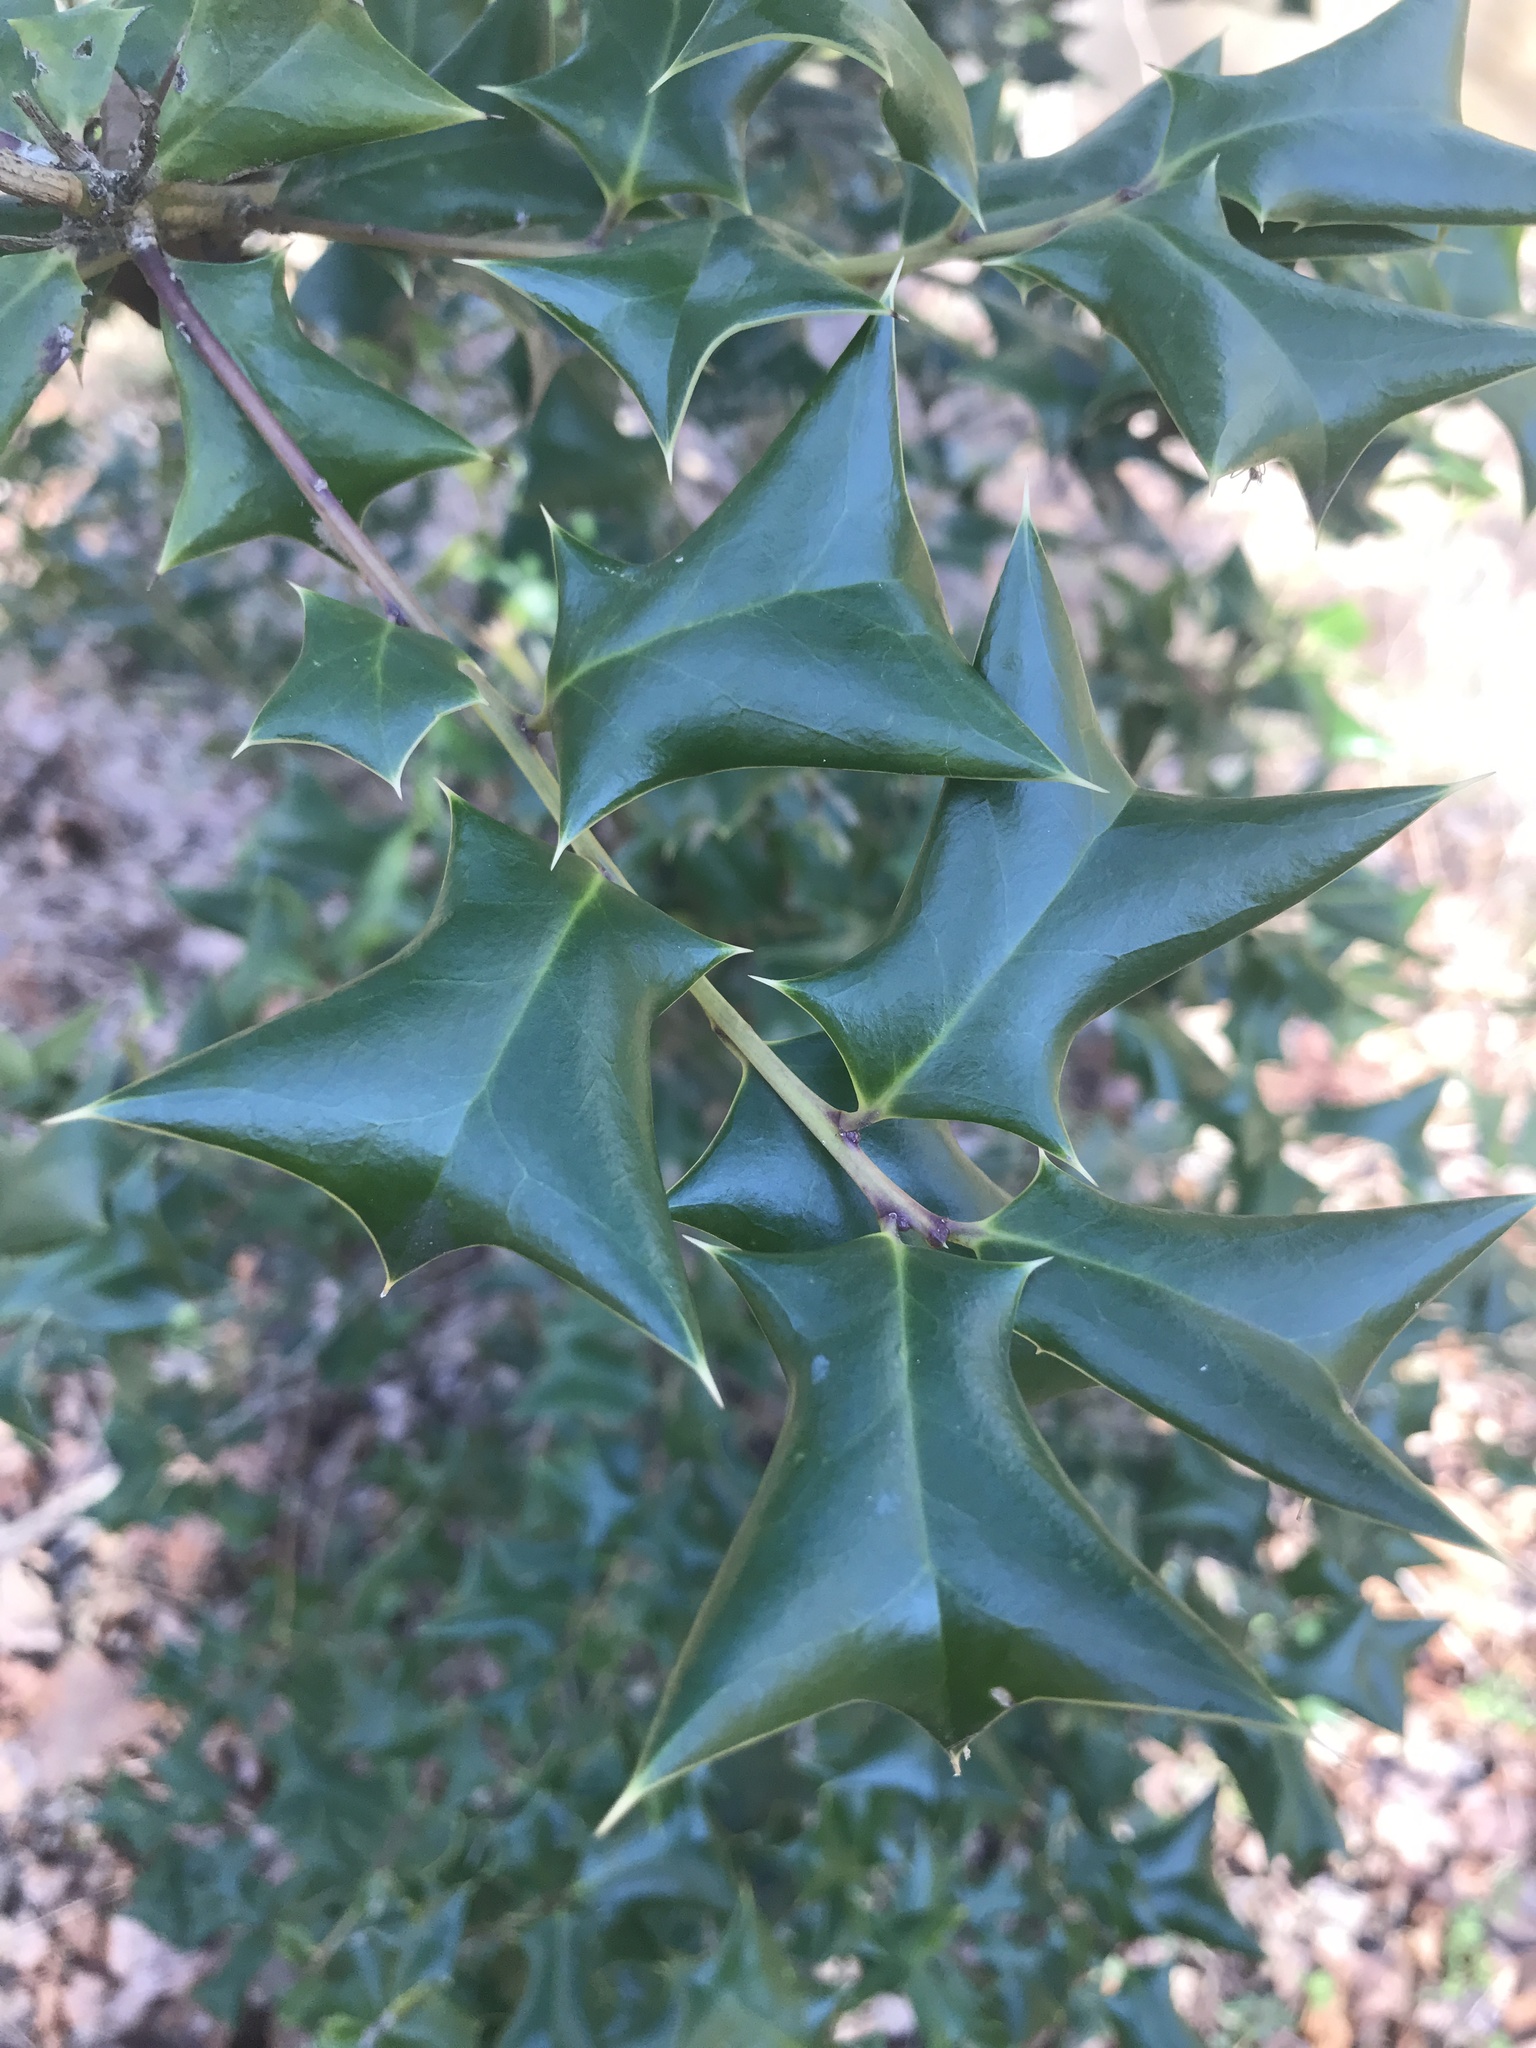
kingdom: Plantae
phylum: Tracheophyta
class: Magnoliopsida
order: Aquifoliales
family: Aquifoliaceae
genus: Ilex
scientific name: Ilex cornuta
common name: Chinese holly
